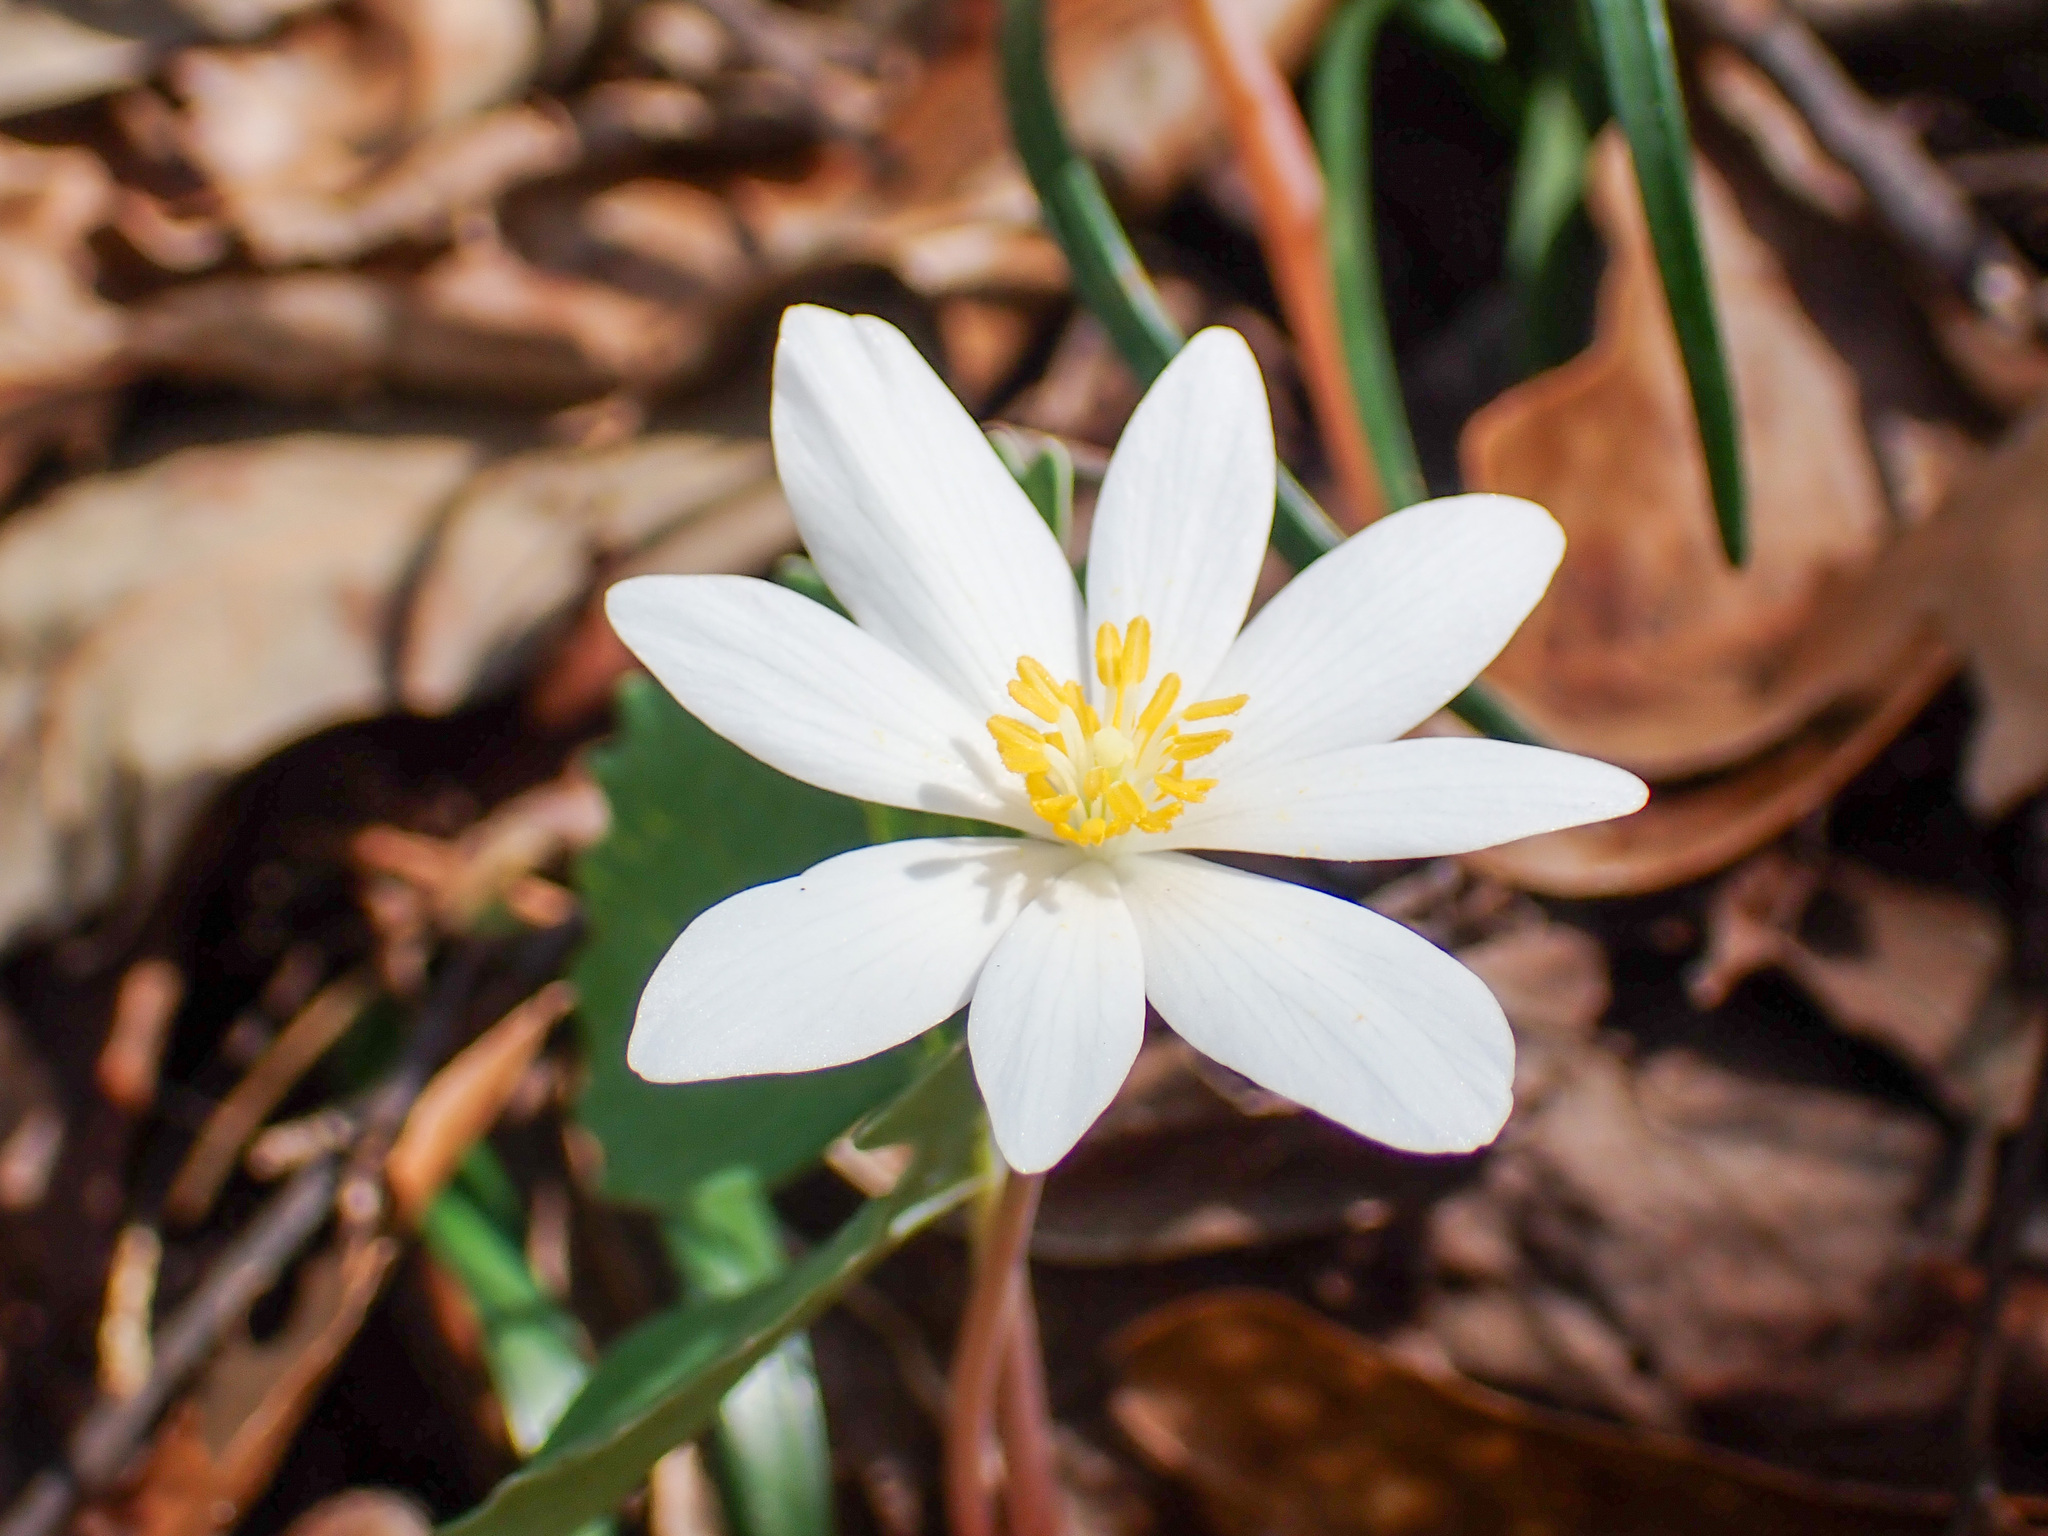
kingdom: Plantae
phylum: Tracheophyta
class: Magnoliopsida
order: Ranunculales
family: Papaveraceae
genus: Sanguinaria
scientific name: Sanguinaria canadensis
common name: Bloodroot
